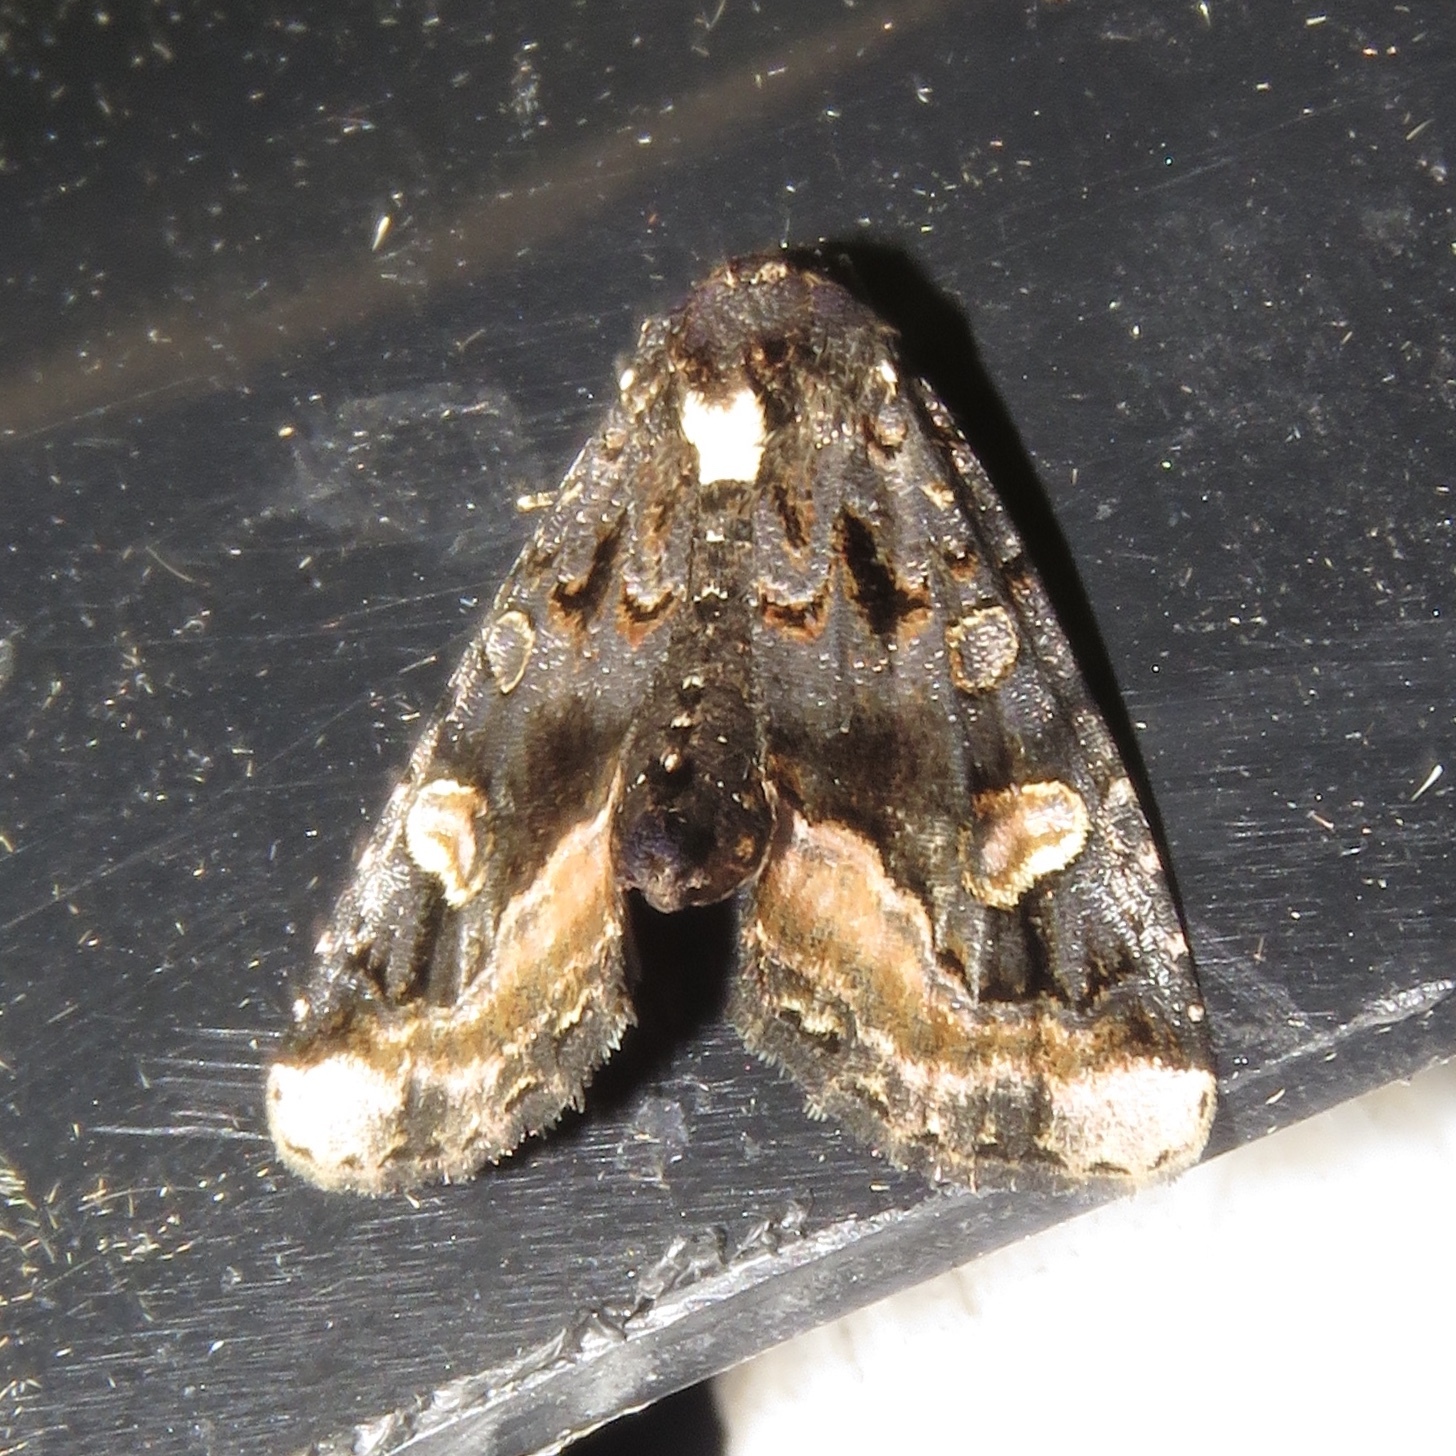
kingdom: Animalia
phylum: Arthropoda
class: Insecta
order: Lepidoptera
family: Noctuidae
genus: Homophoberia
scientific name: Homophoberia apicosa
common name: Black wedge-spot
